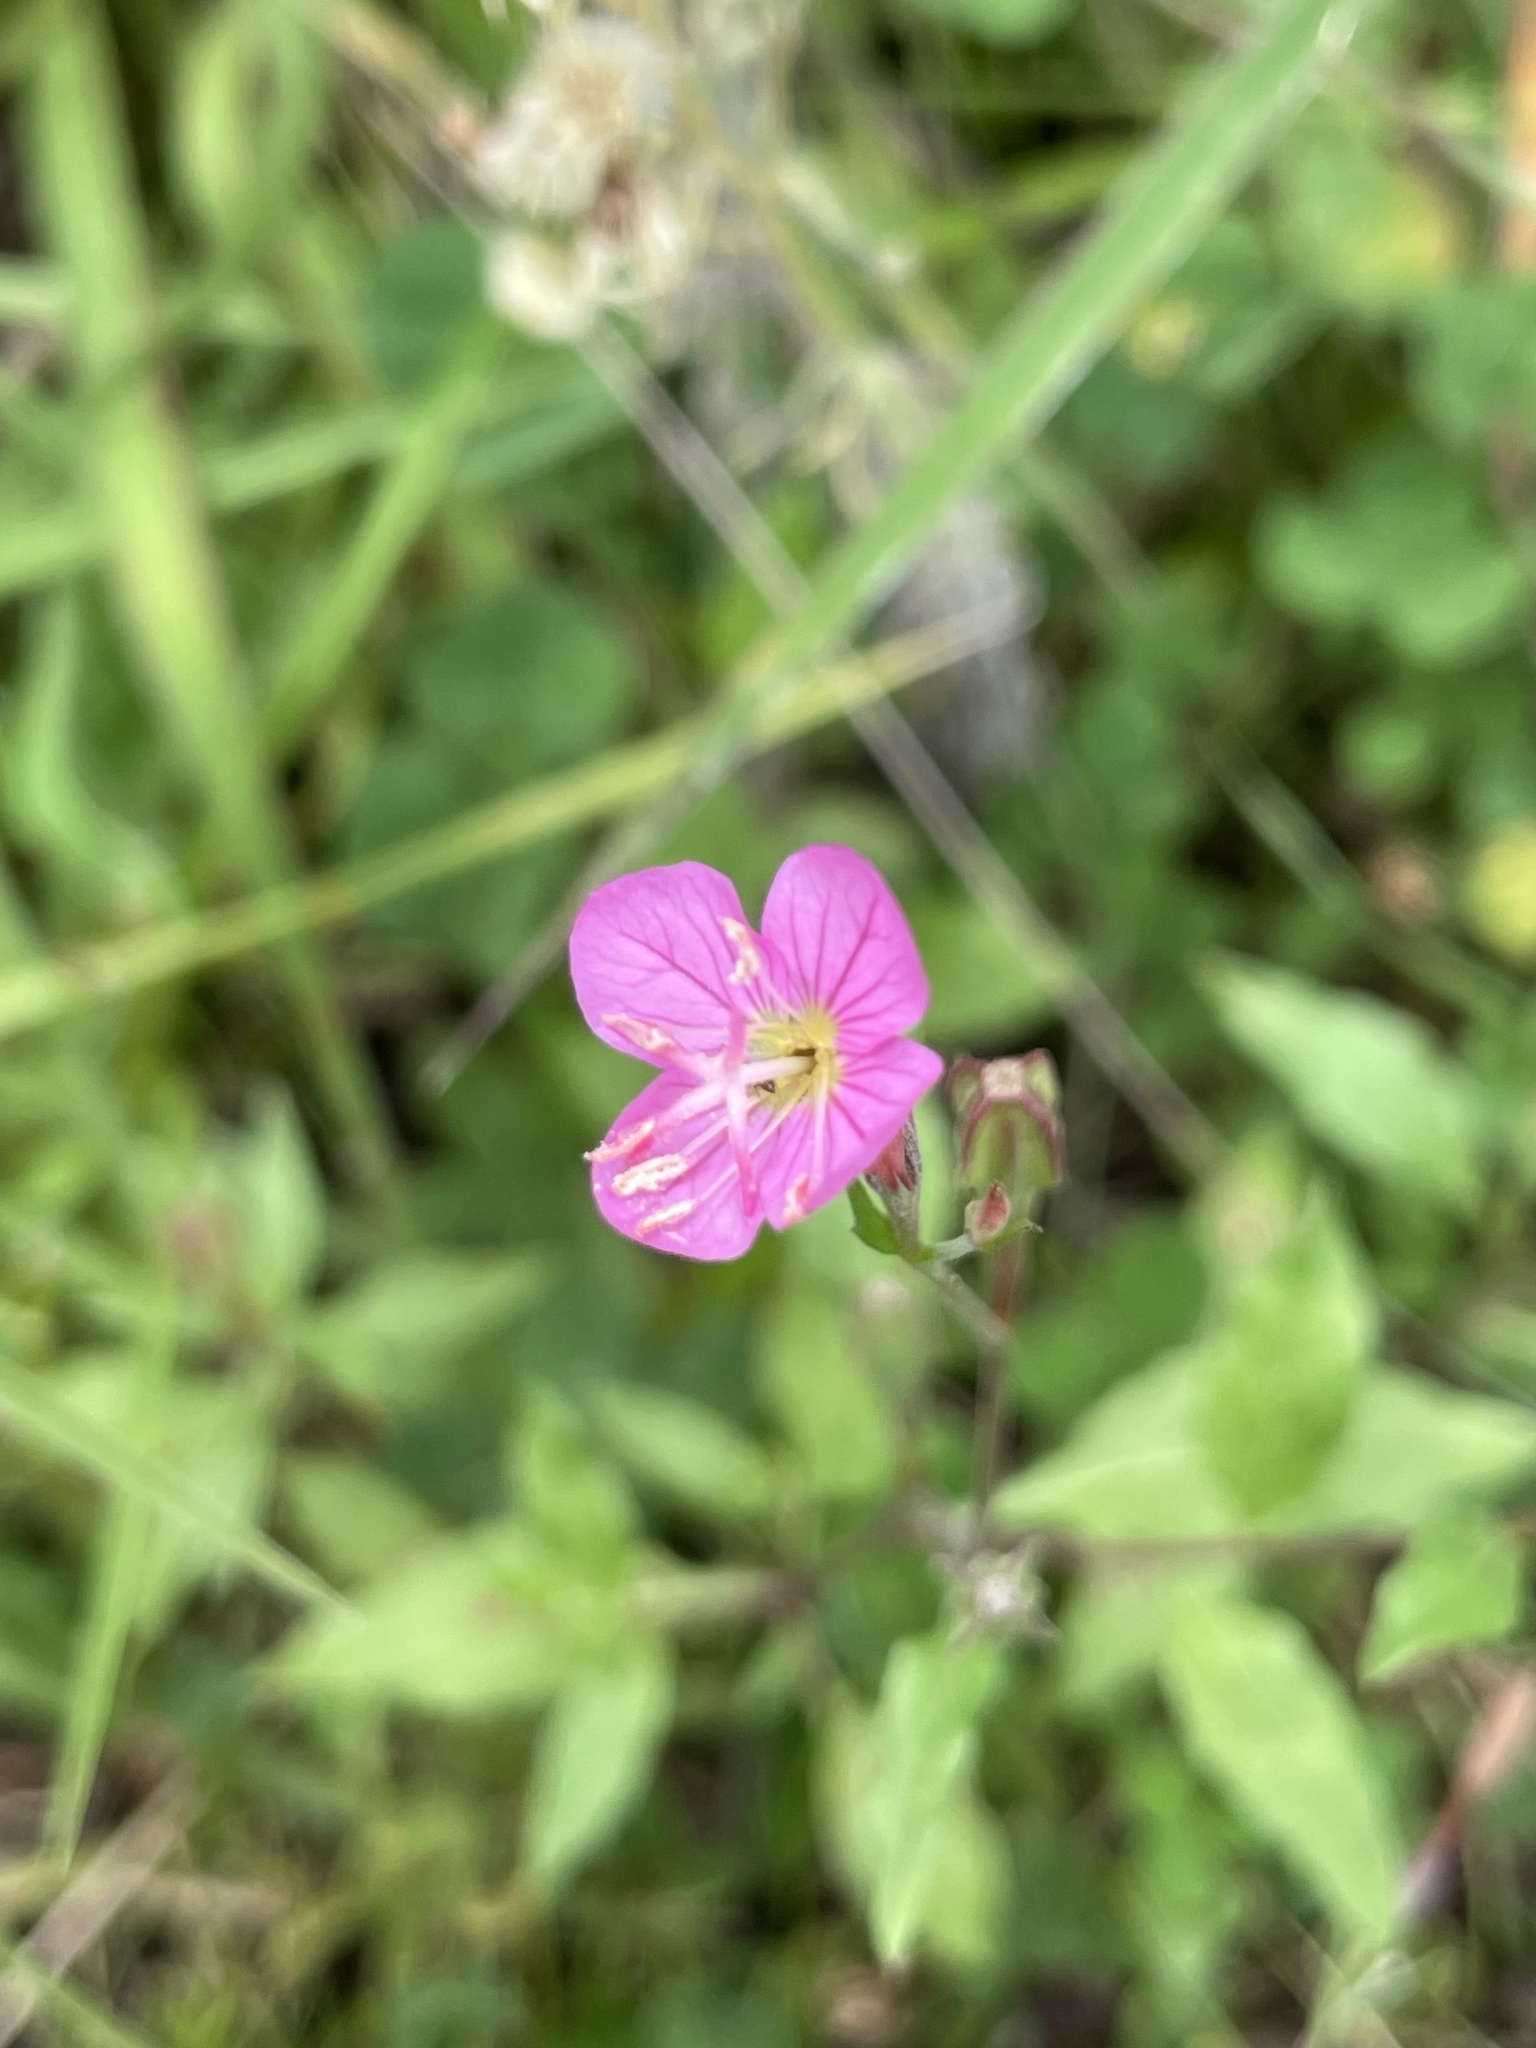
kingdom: Plantae
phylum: Tracheophyta
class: Magnoliopsida
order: Myrtales
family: Onagraceae
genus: Oenothera
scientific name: Oenothera rosea
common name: Rosy evening-primrose
